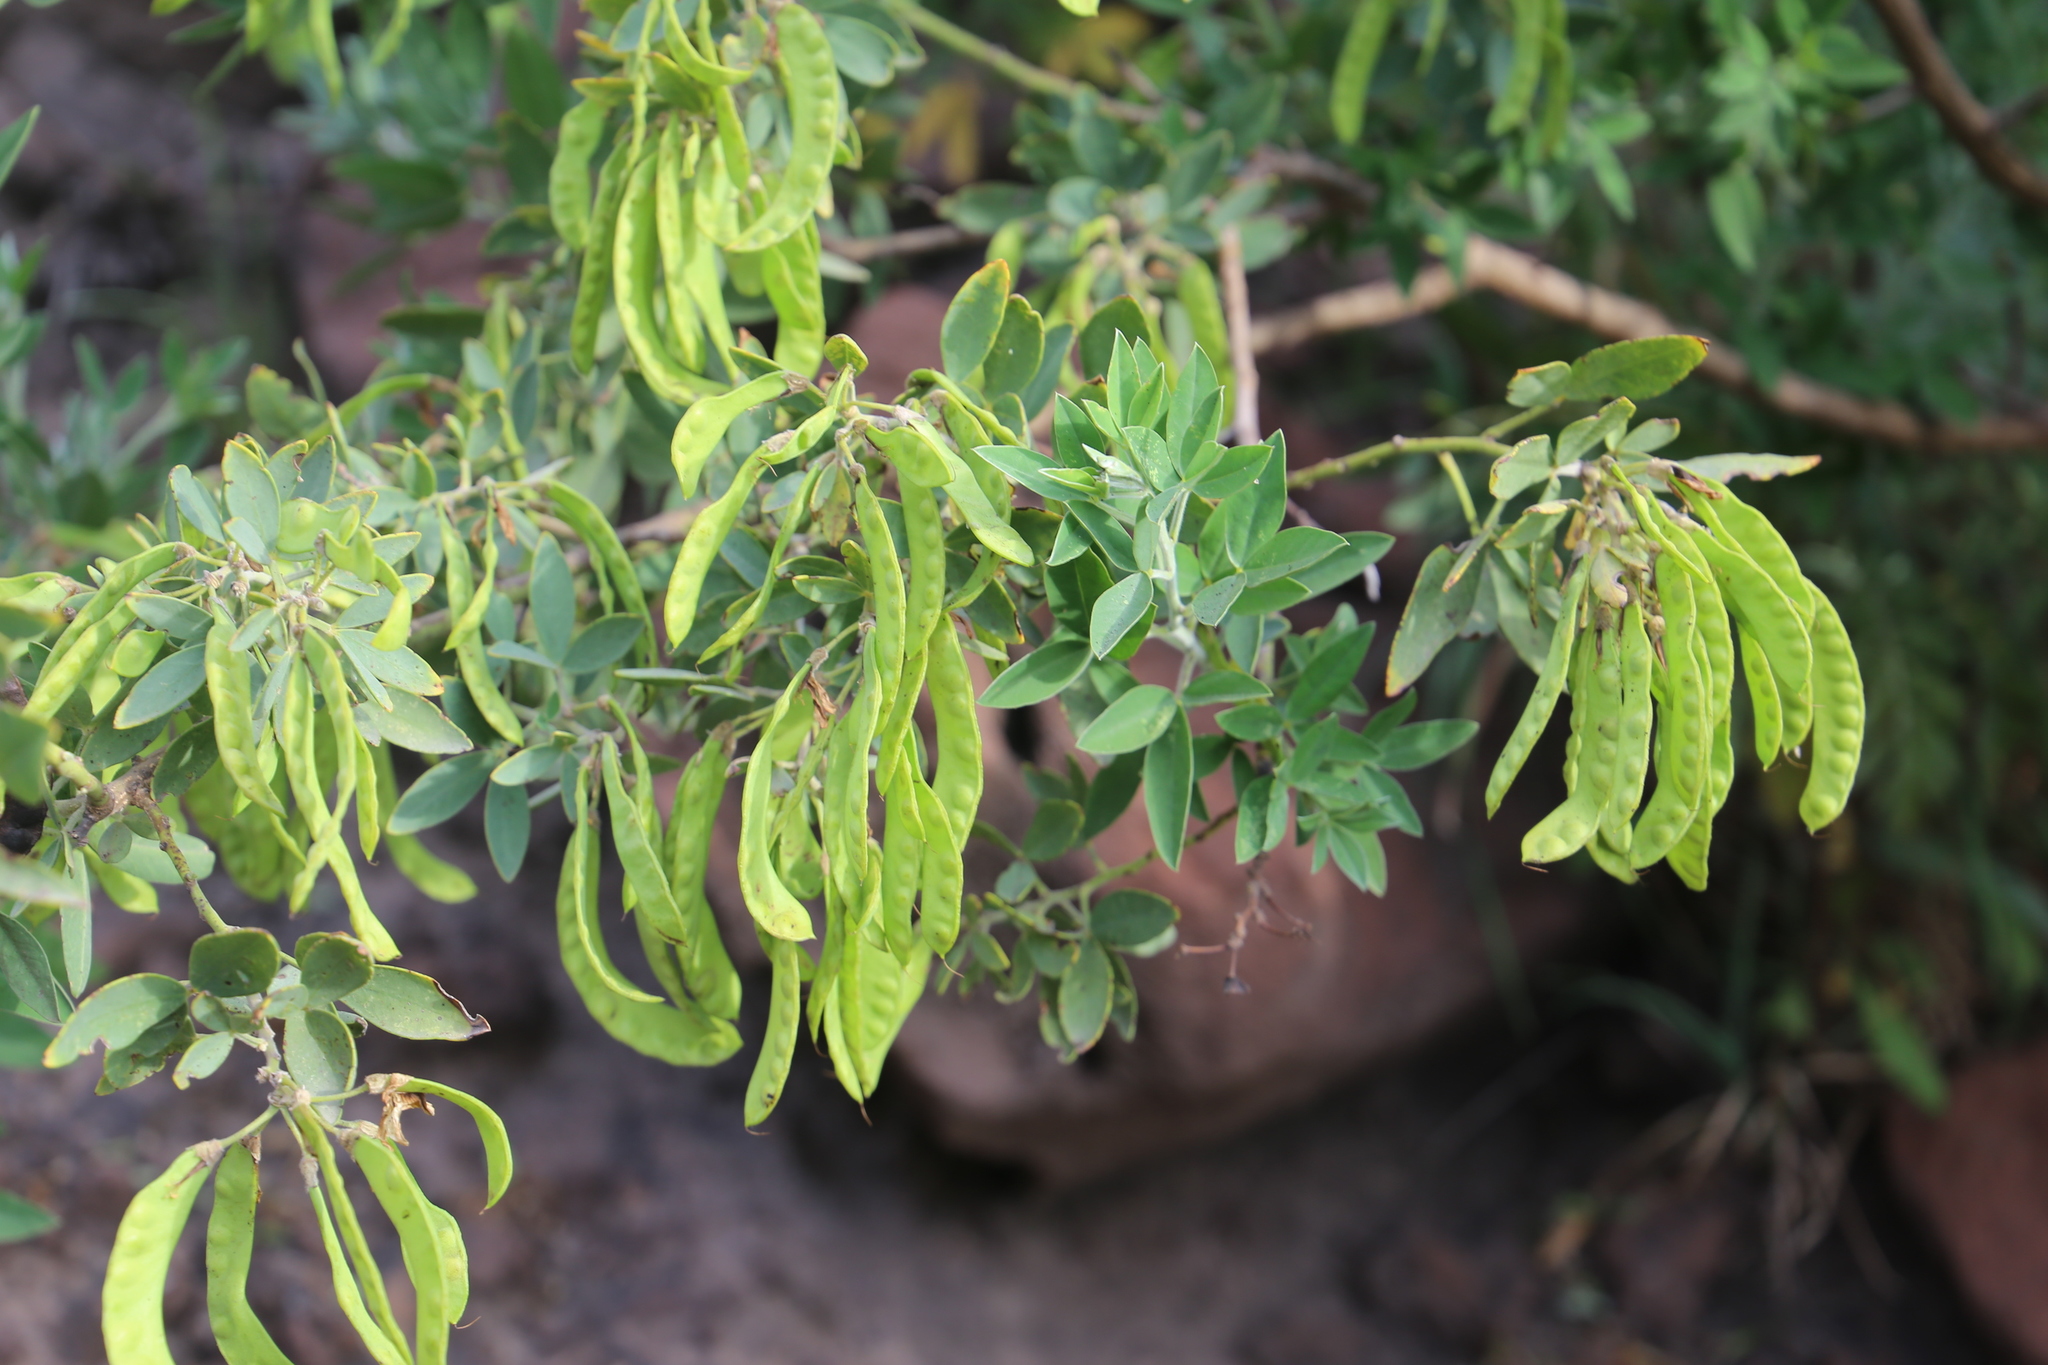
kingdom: Plantae
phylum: Tracheophyta
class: Magnoliopsida
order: Fabales
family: Fabaceae
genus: Cytisus
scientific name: Cytisus aeolicus
